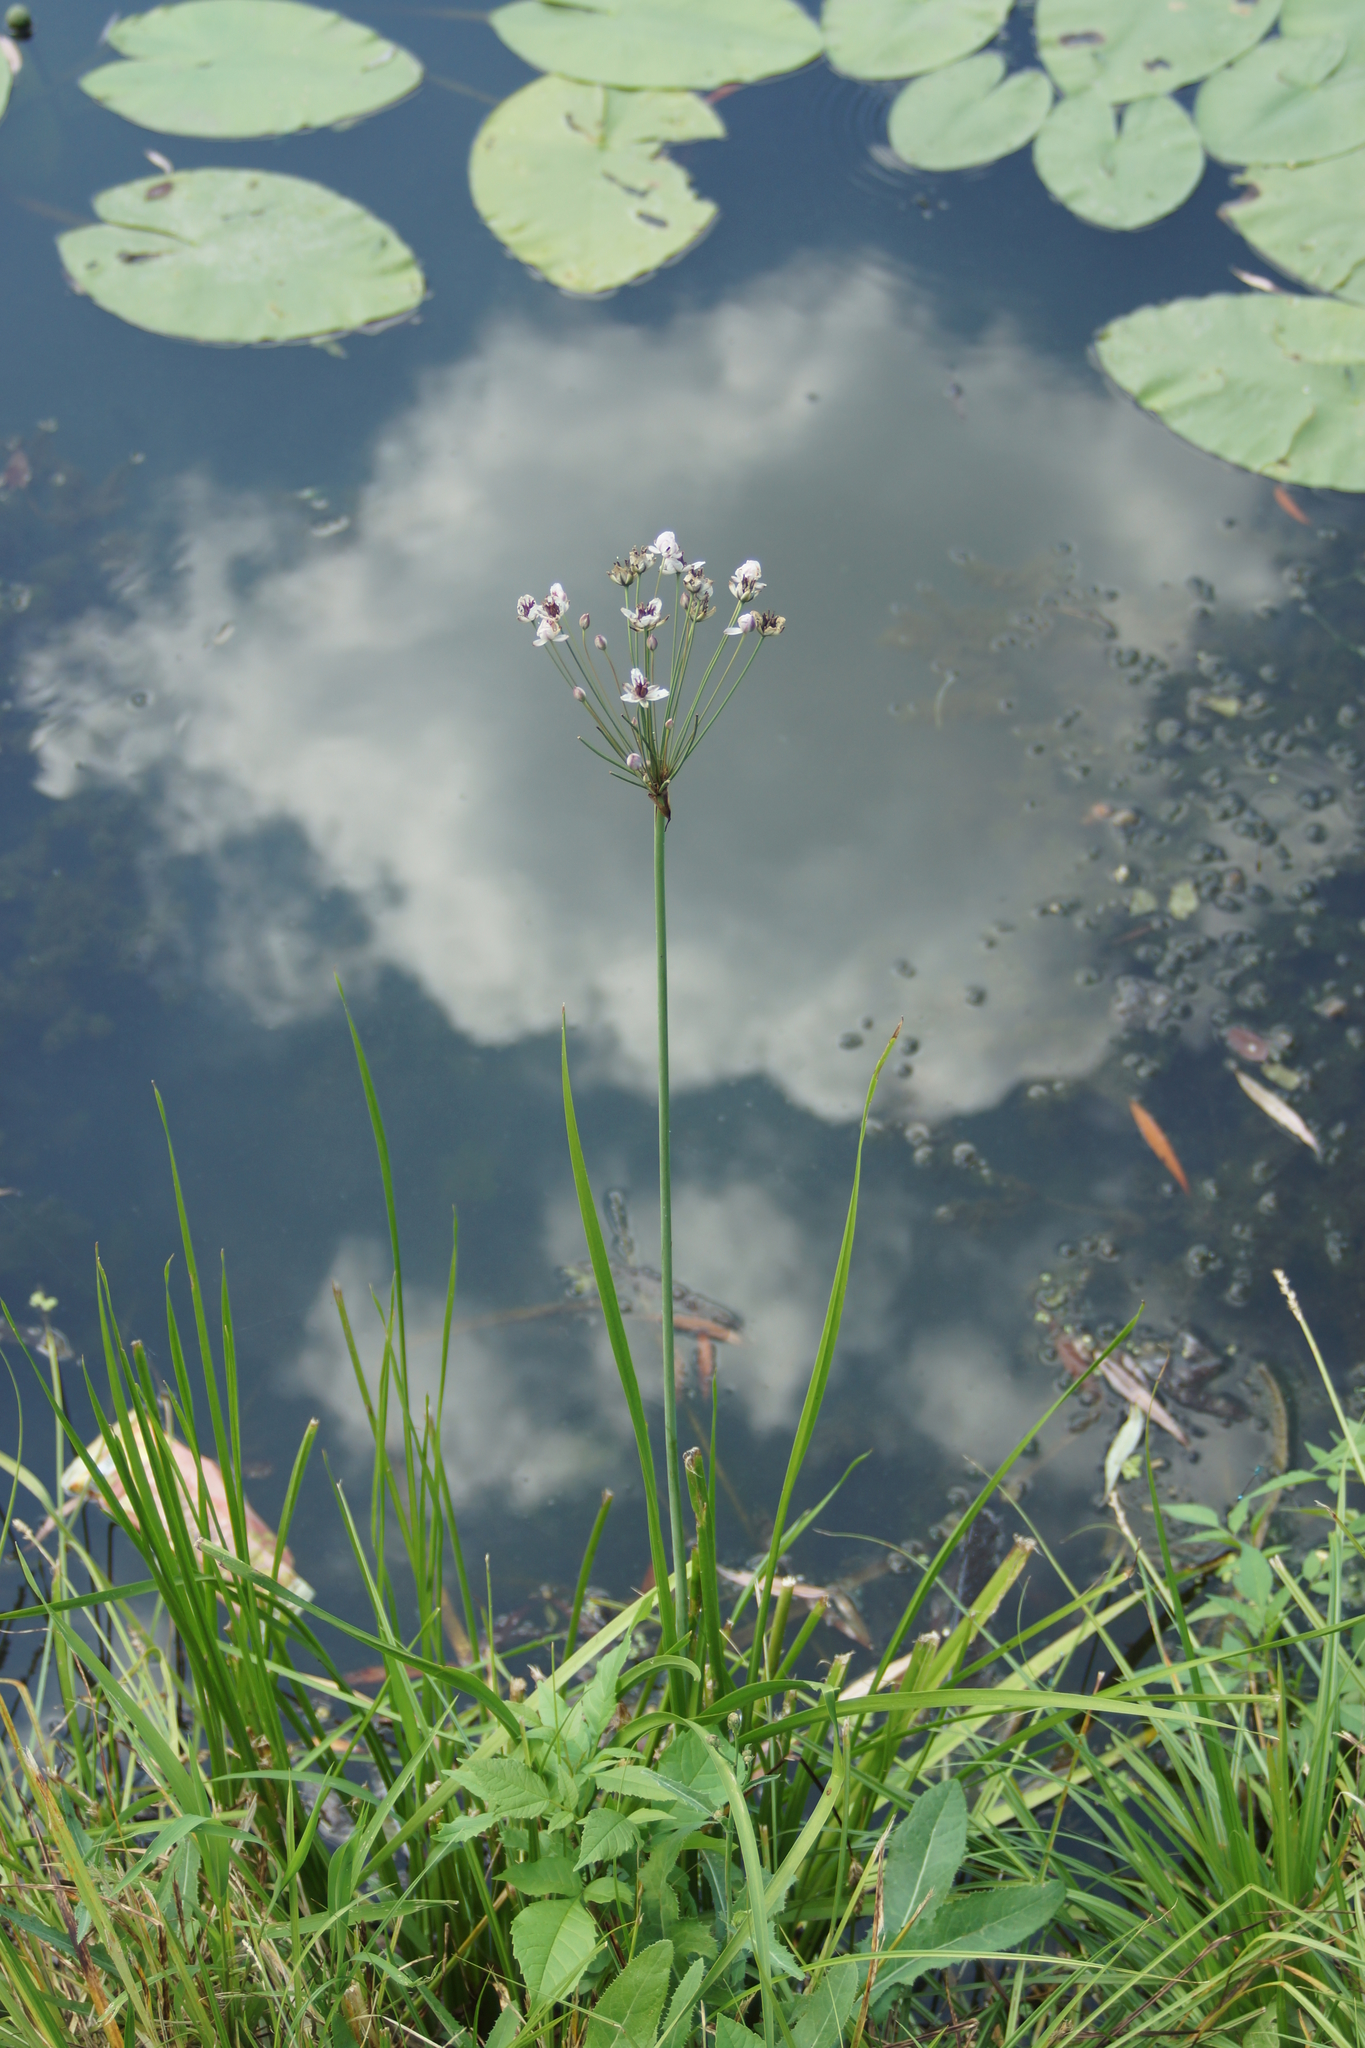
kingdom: Plantae
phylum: Tracheophyta
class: Liliopsida
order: Alismatales
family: Butomaceae
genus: Butomus
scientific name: Butomus umbellatus
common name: Flowering-rush
